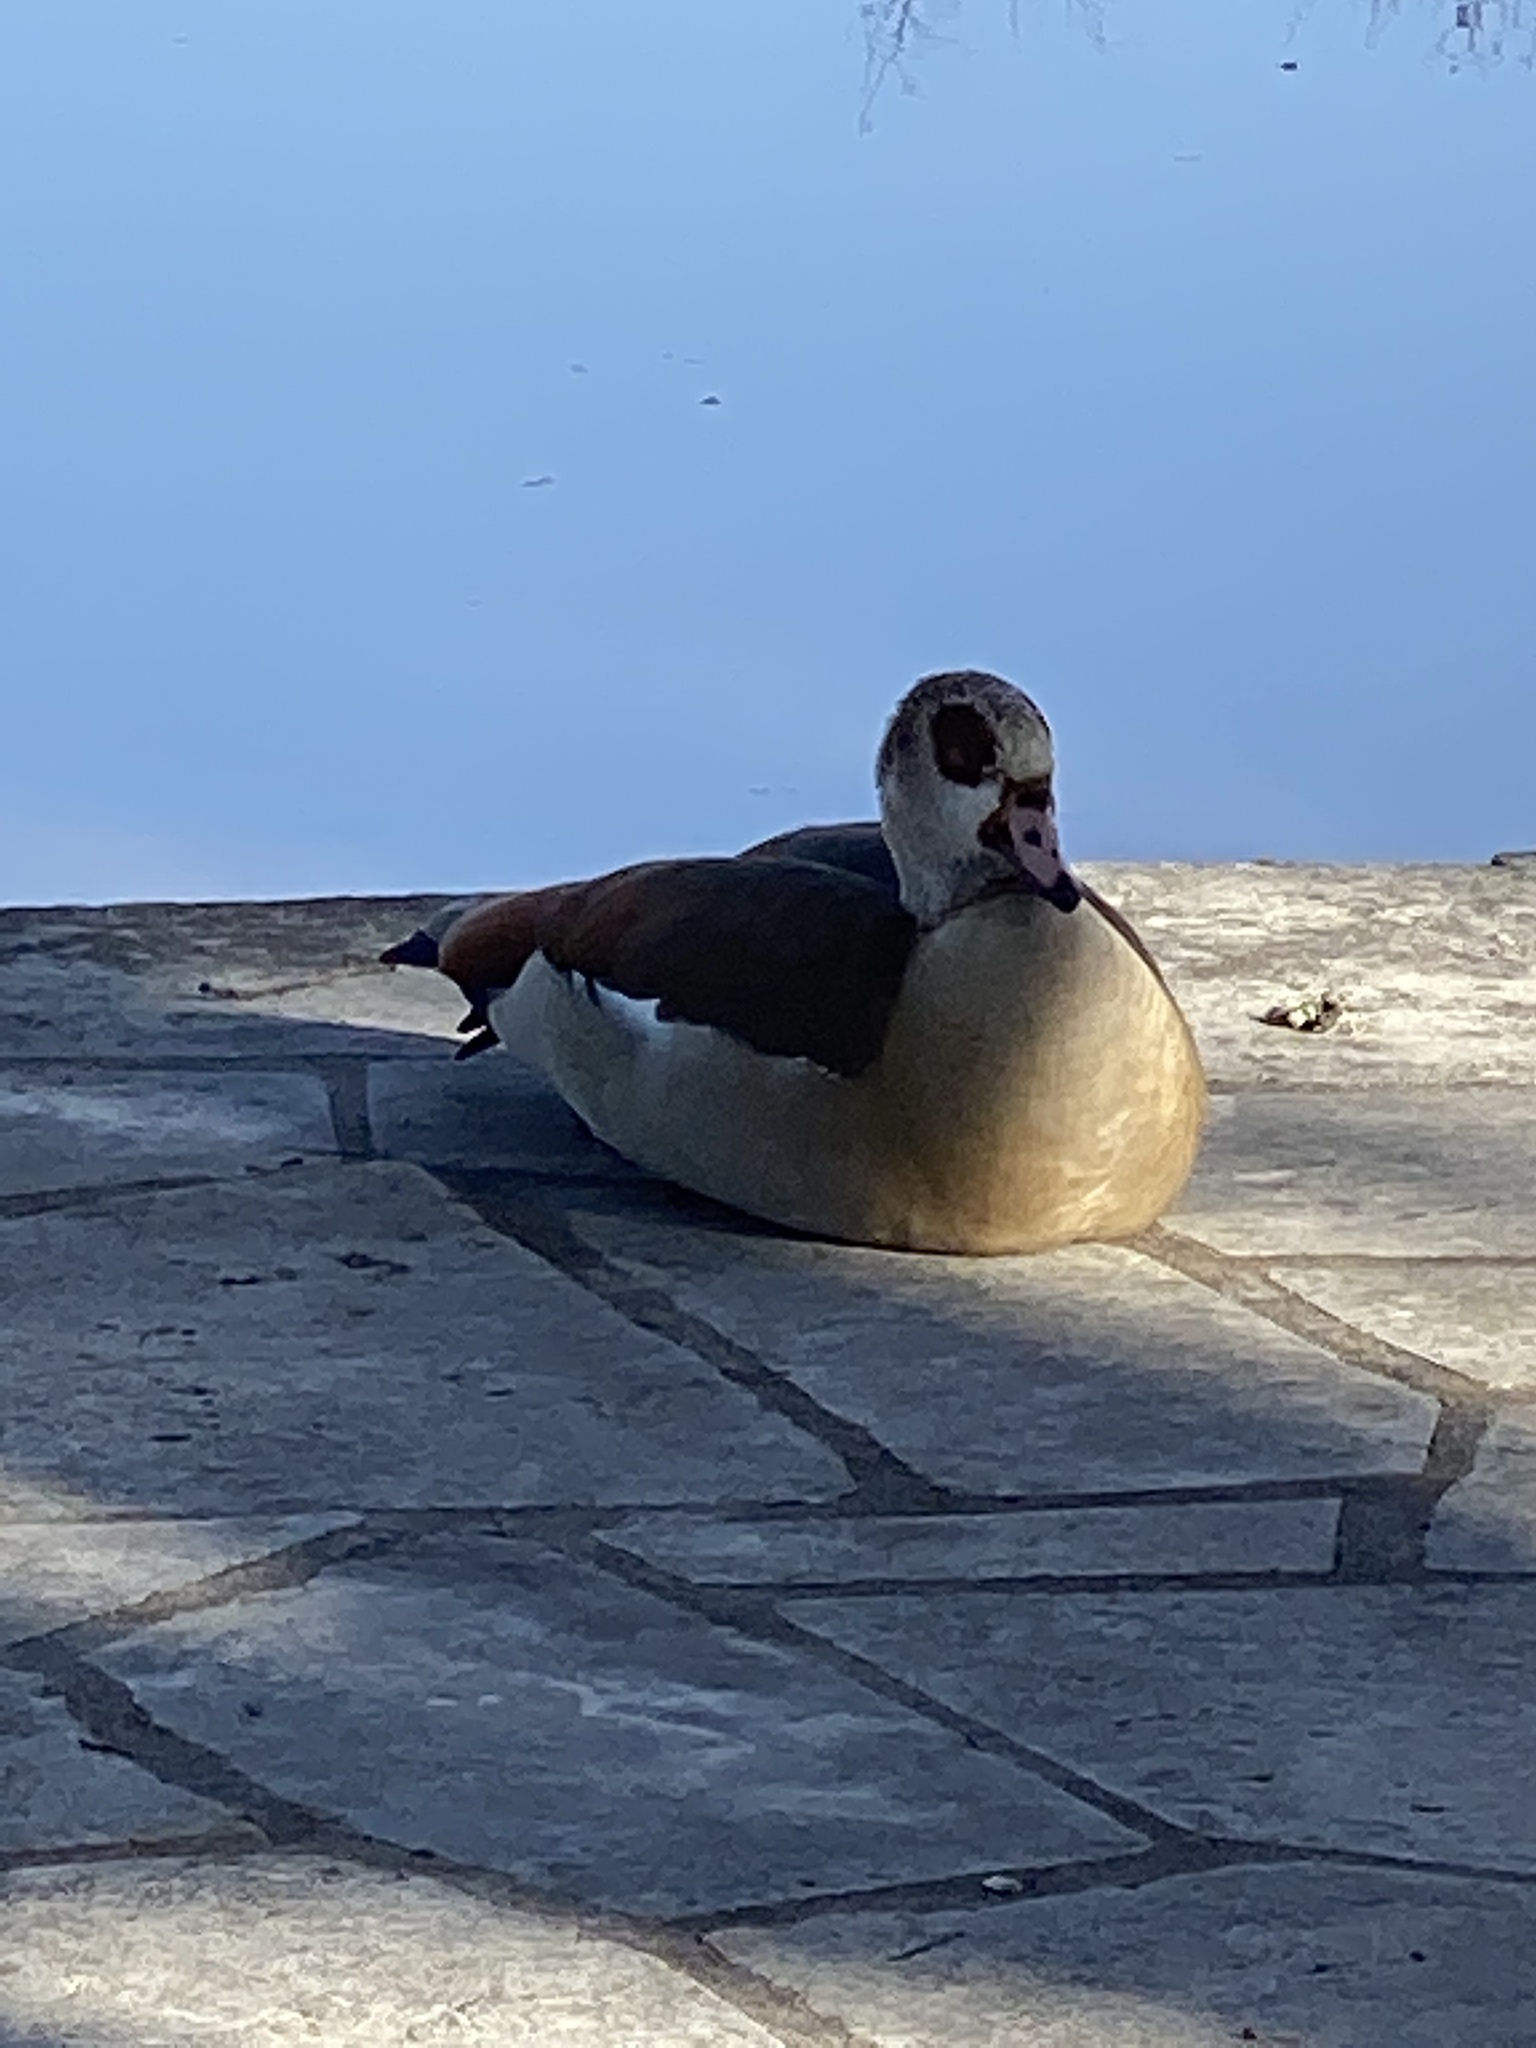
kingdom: Animalia
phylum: Chordata
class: Aves
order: Anseriformes
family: Anatidae
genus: Alopochen
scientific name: Alopochen aegyptiaca
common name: Egyptian goose
